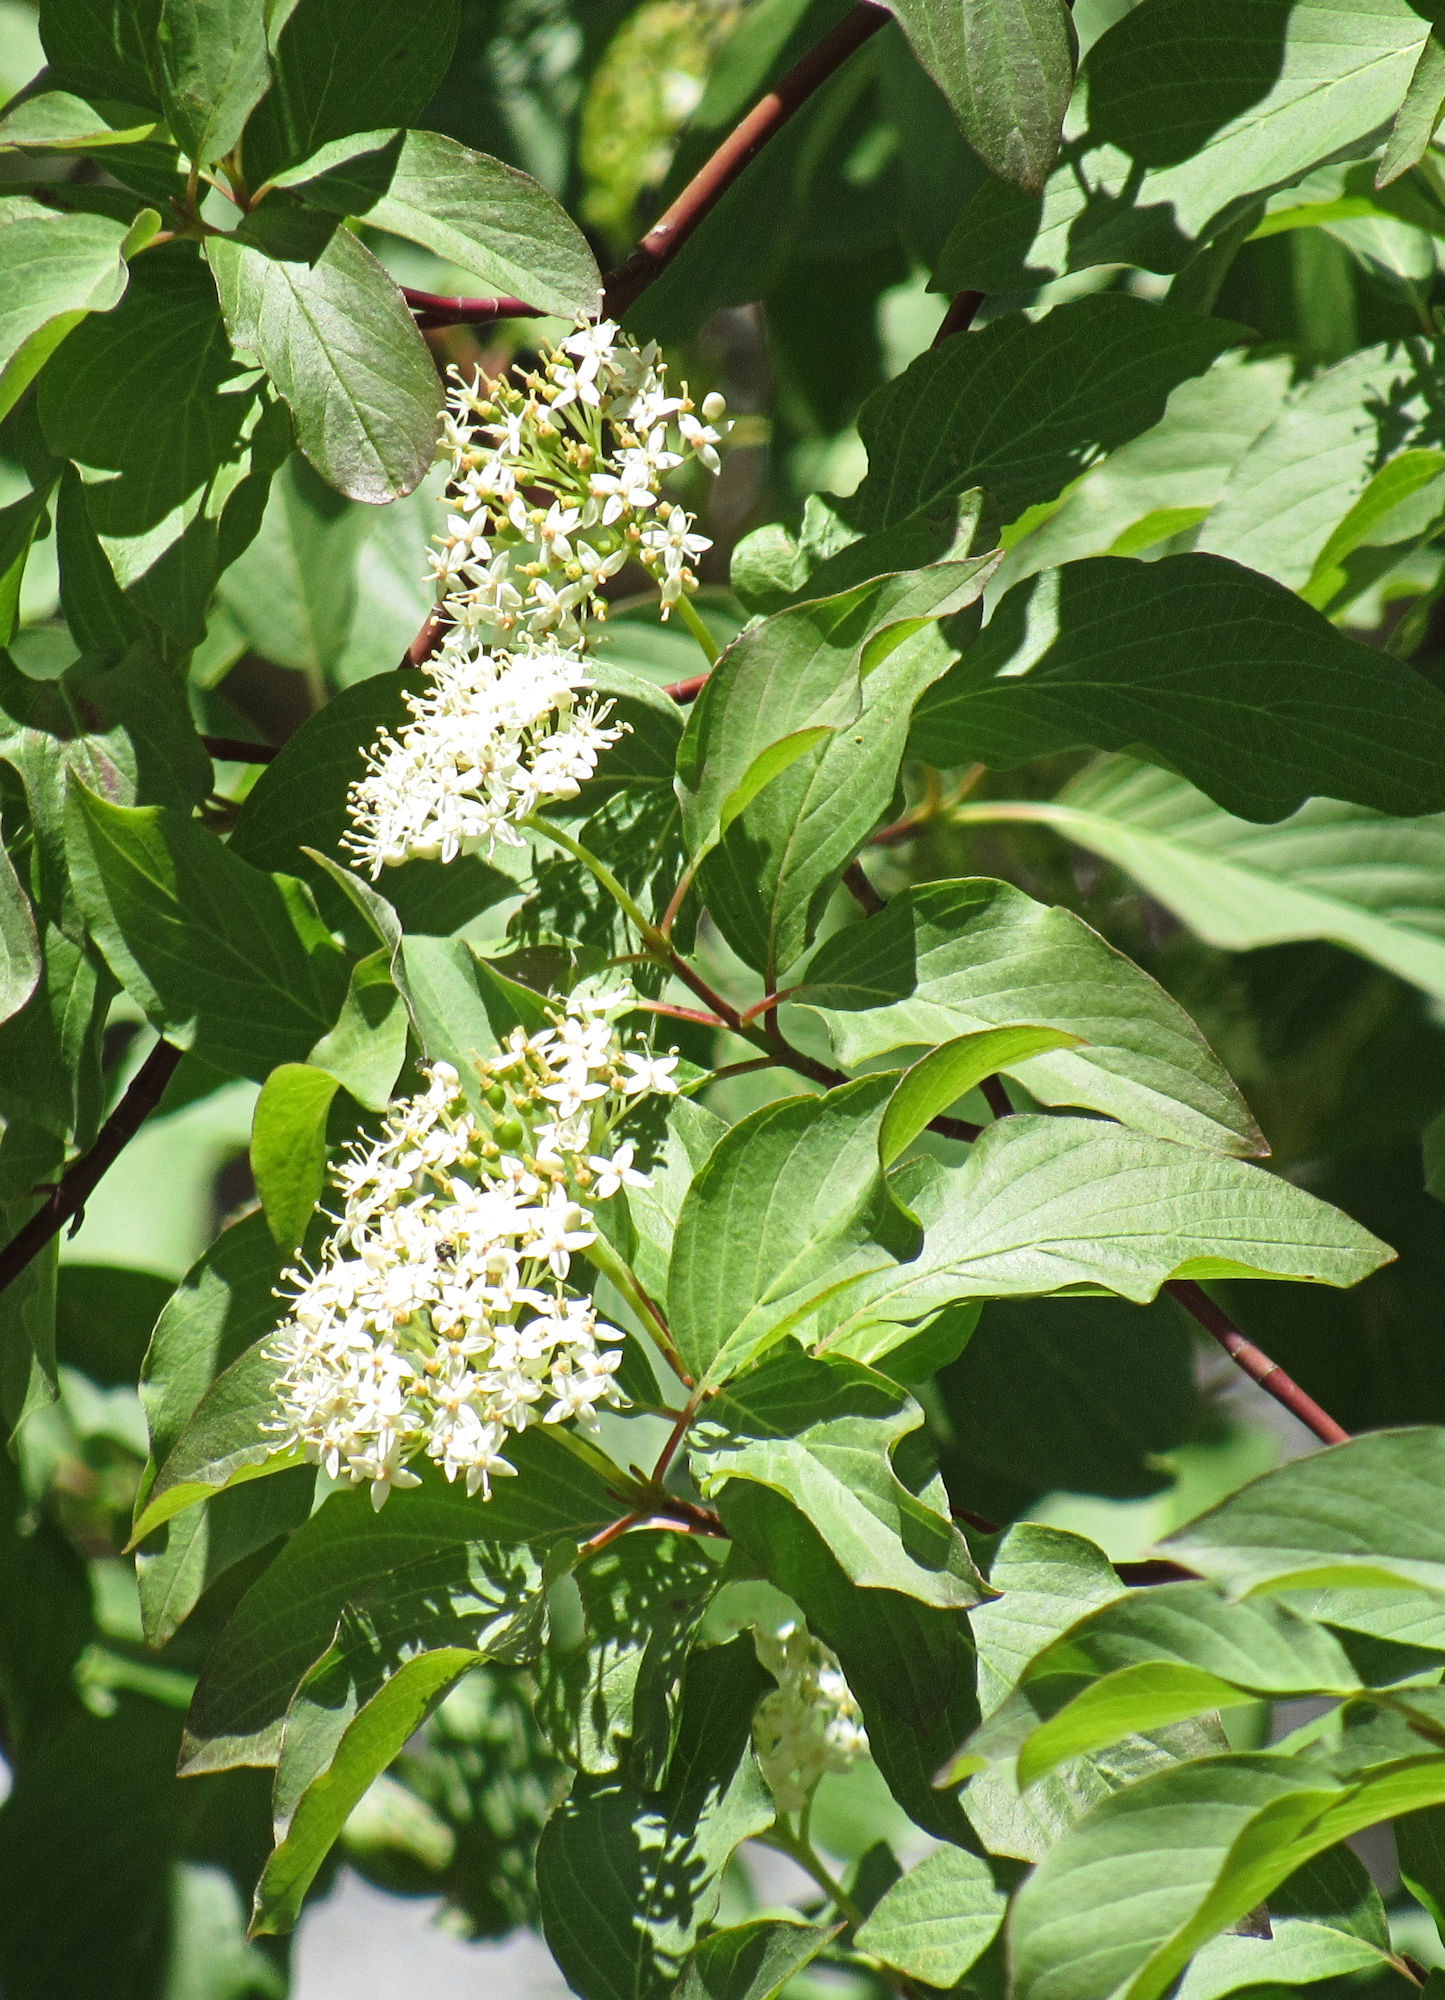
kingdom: Plantae
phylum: Tracheophyta
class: Magnoliopsida
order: Cornales
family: Cornaceae
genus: Cornus
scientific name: Cornus sericea
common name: Red-osier dogwood
